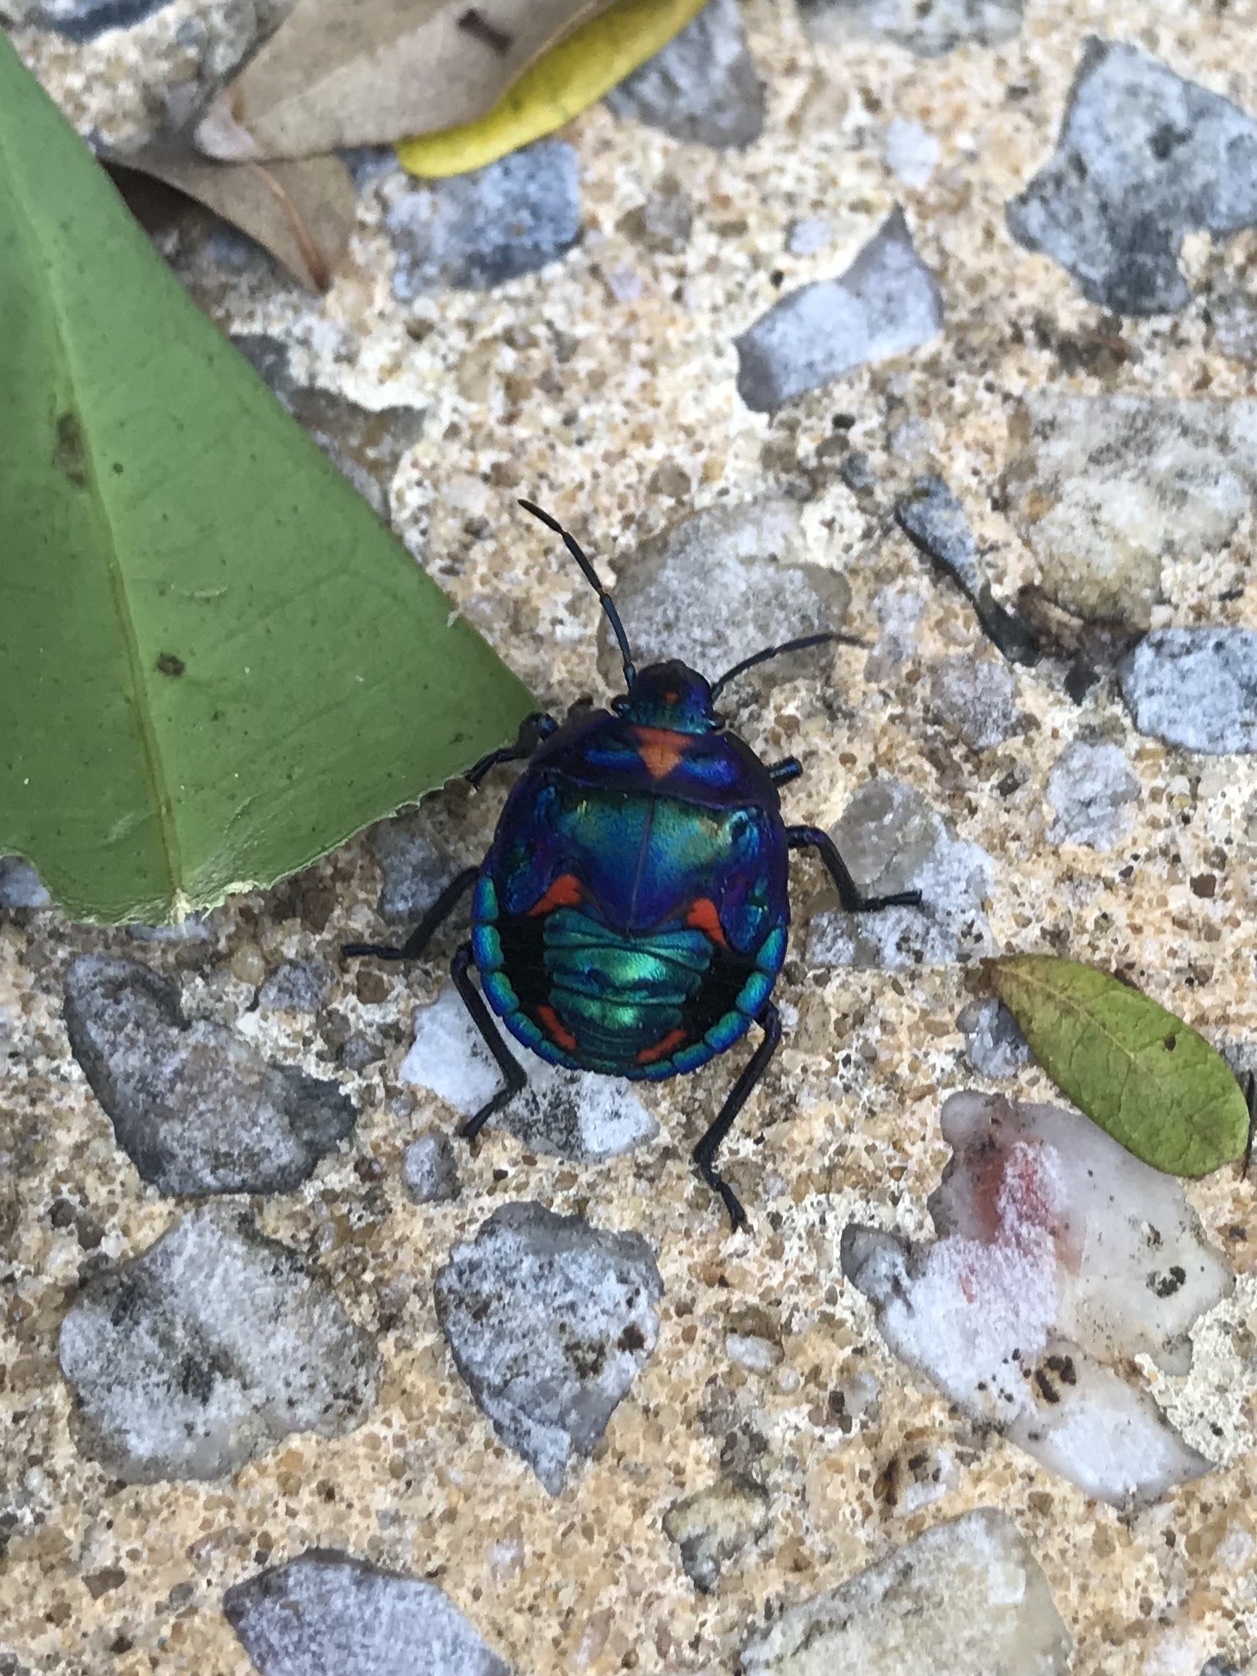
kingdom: Animalia
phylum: Arthropoda
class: Insecta
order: Hemiptera
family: Scutelleridae
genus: Tectocoris
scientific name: Tectocoris diophthalmus
